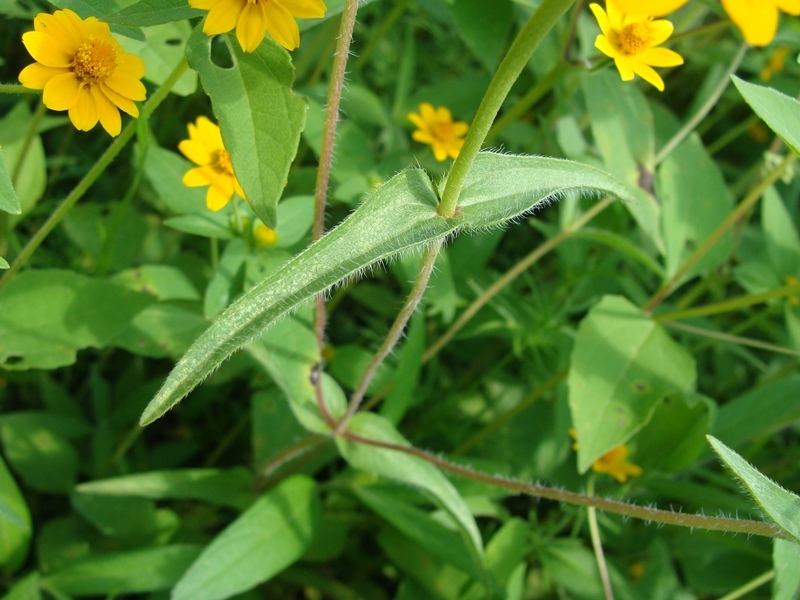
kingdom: Plantae
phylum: Tracheophyta
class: Magnoliopsida
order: Asterales
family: Asteraceae
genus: Zinnia
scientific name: Zinnia haageana
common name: Mexican zinnia
